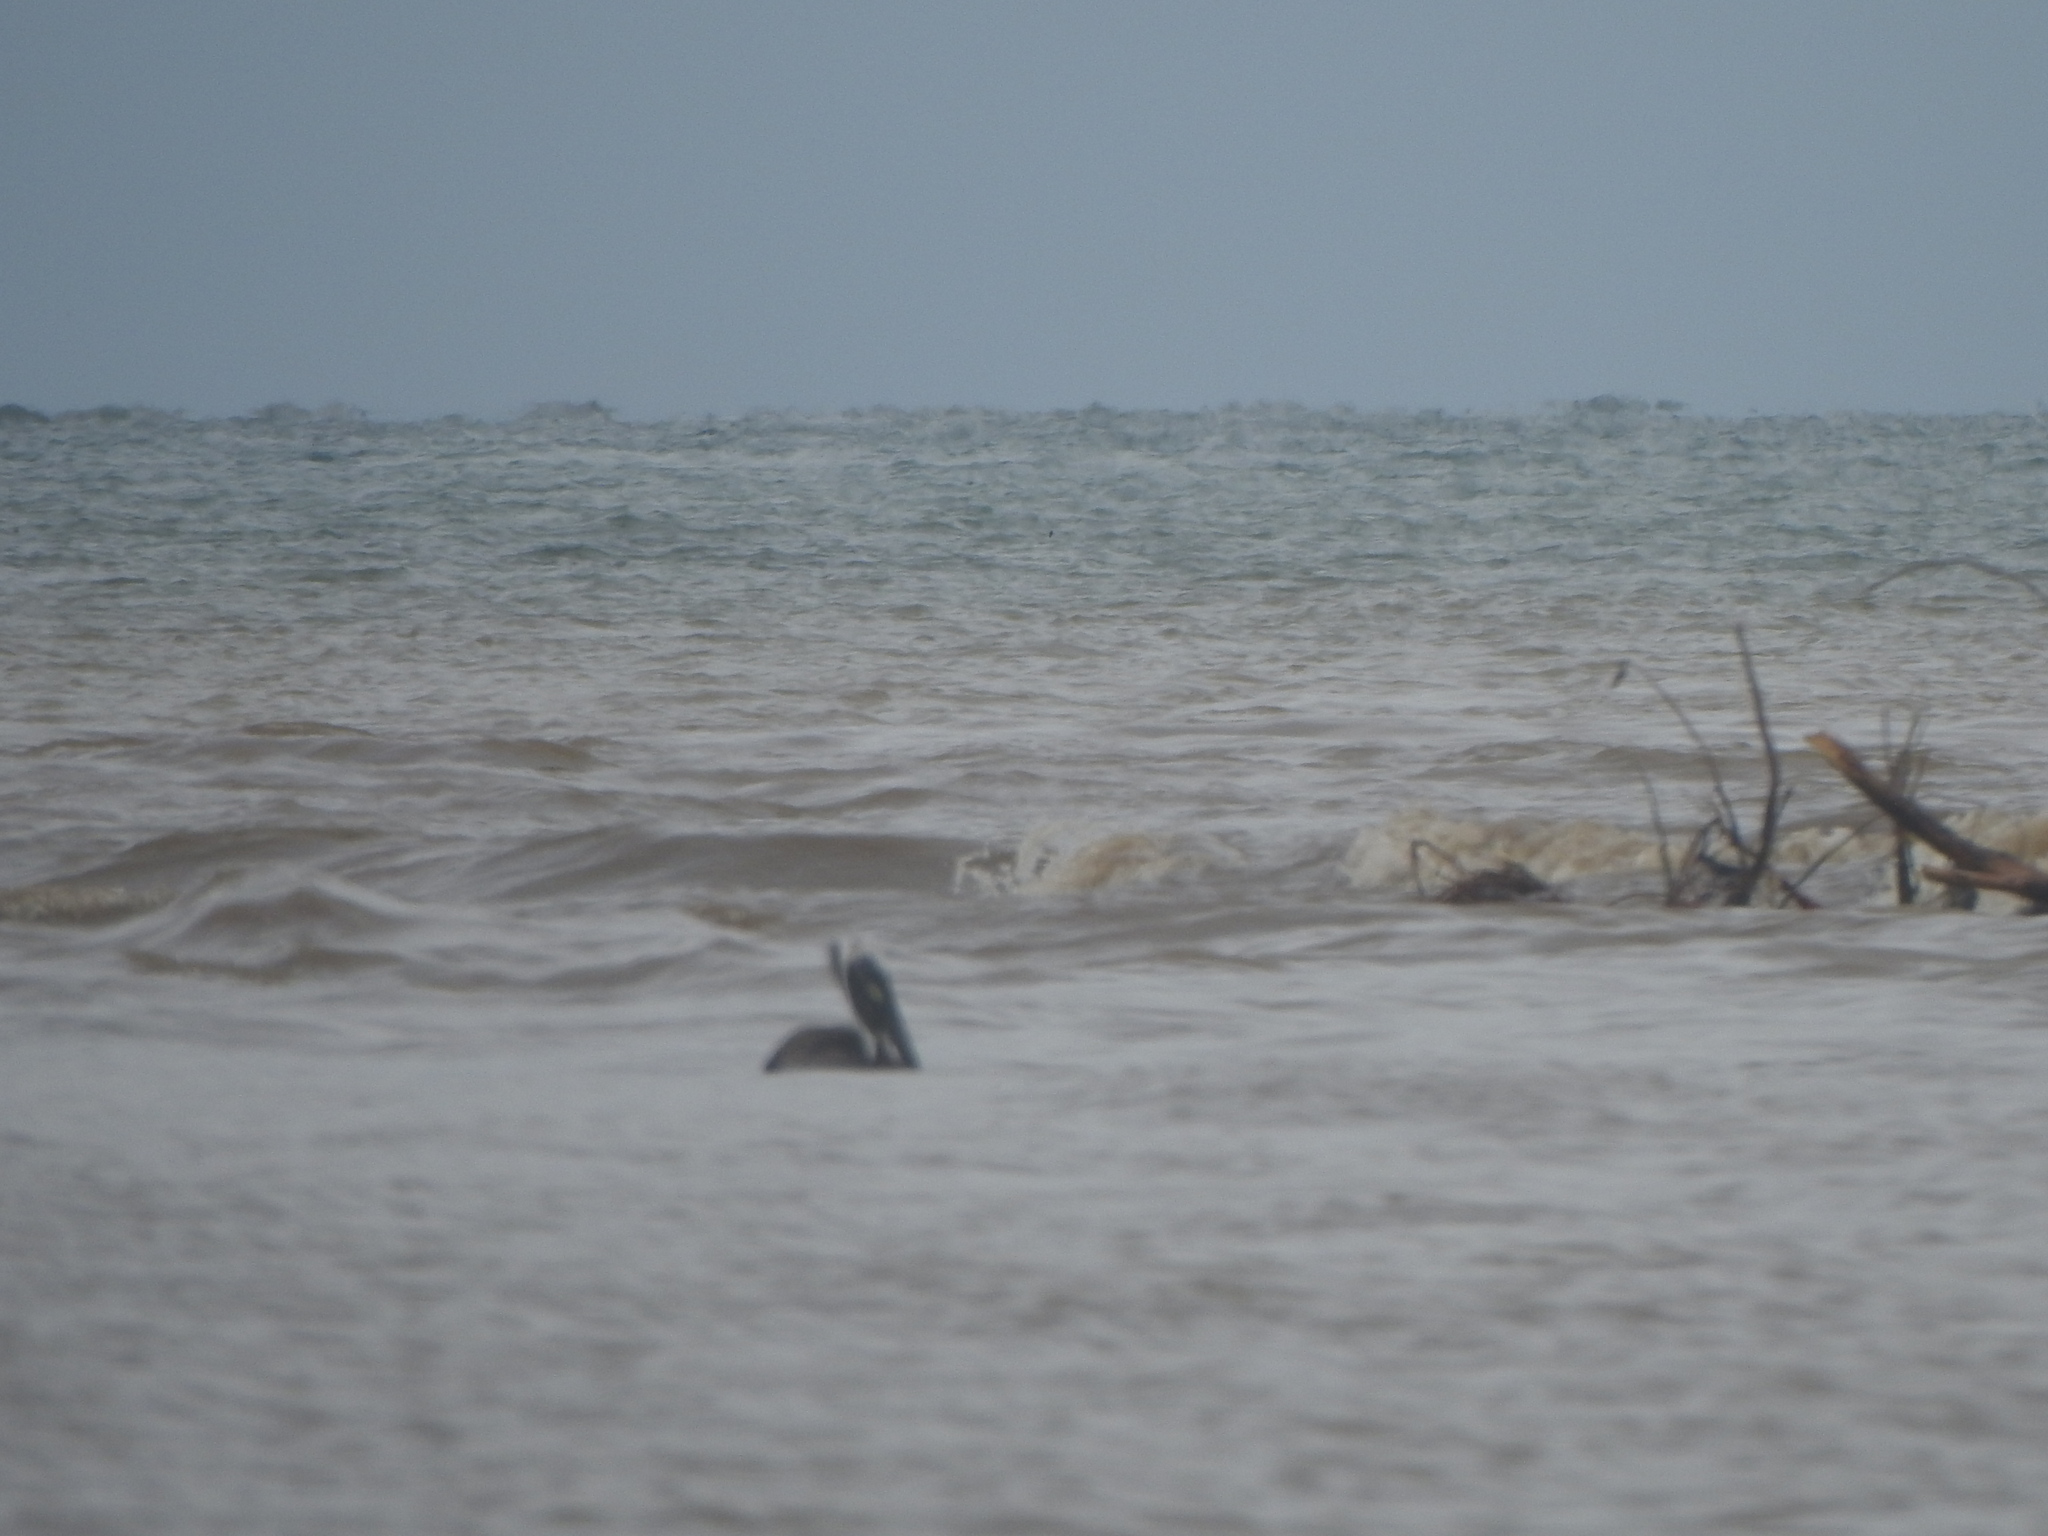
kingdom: Animalia
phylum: Chordata
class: Aves
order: Pelecaniformes
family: Pelecanidae
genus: Pelecanus
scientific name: Pelecanus occidentalis
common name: Brown pelican
